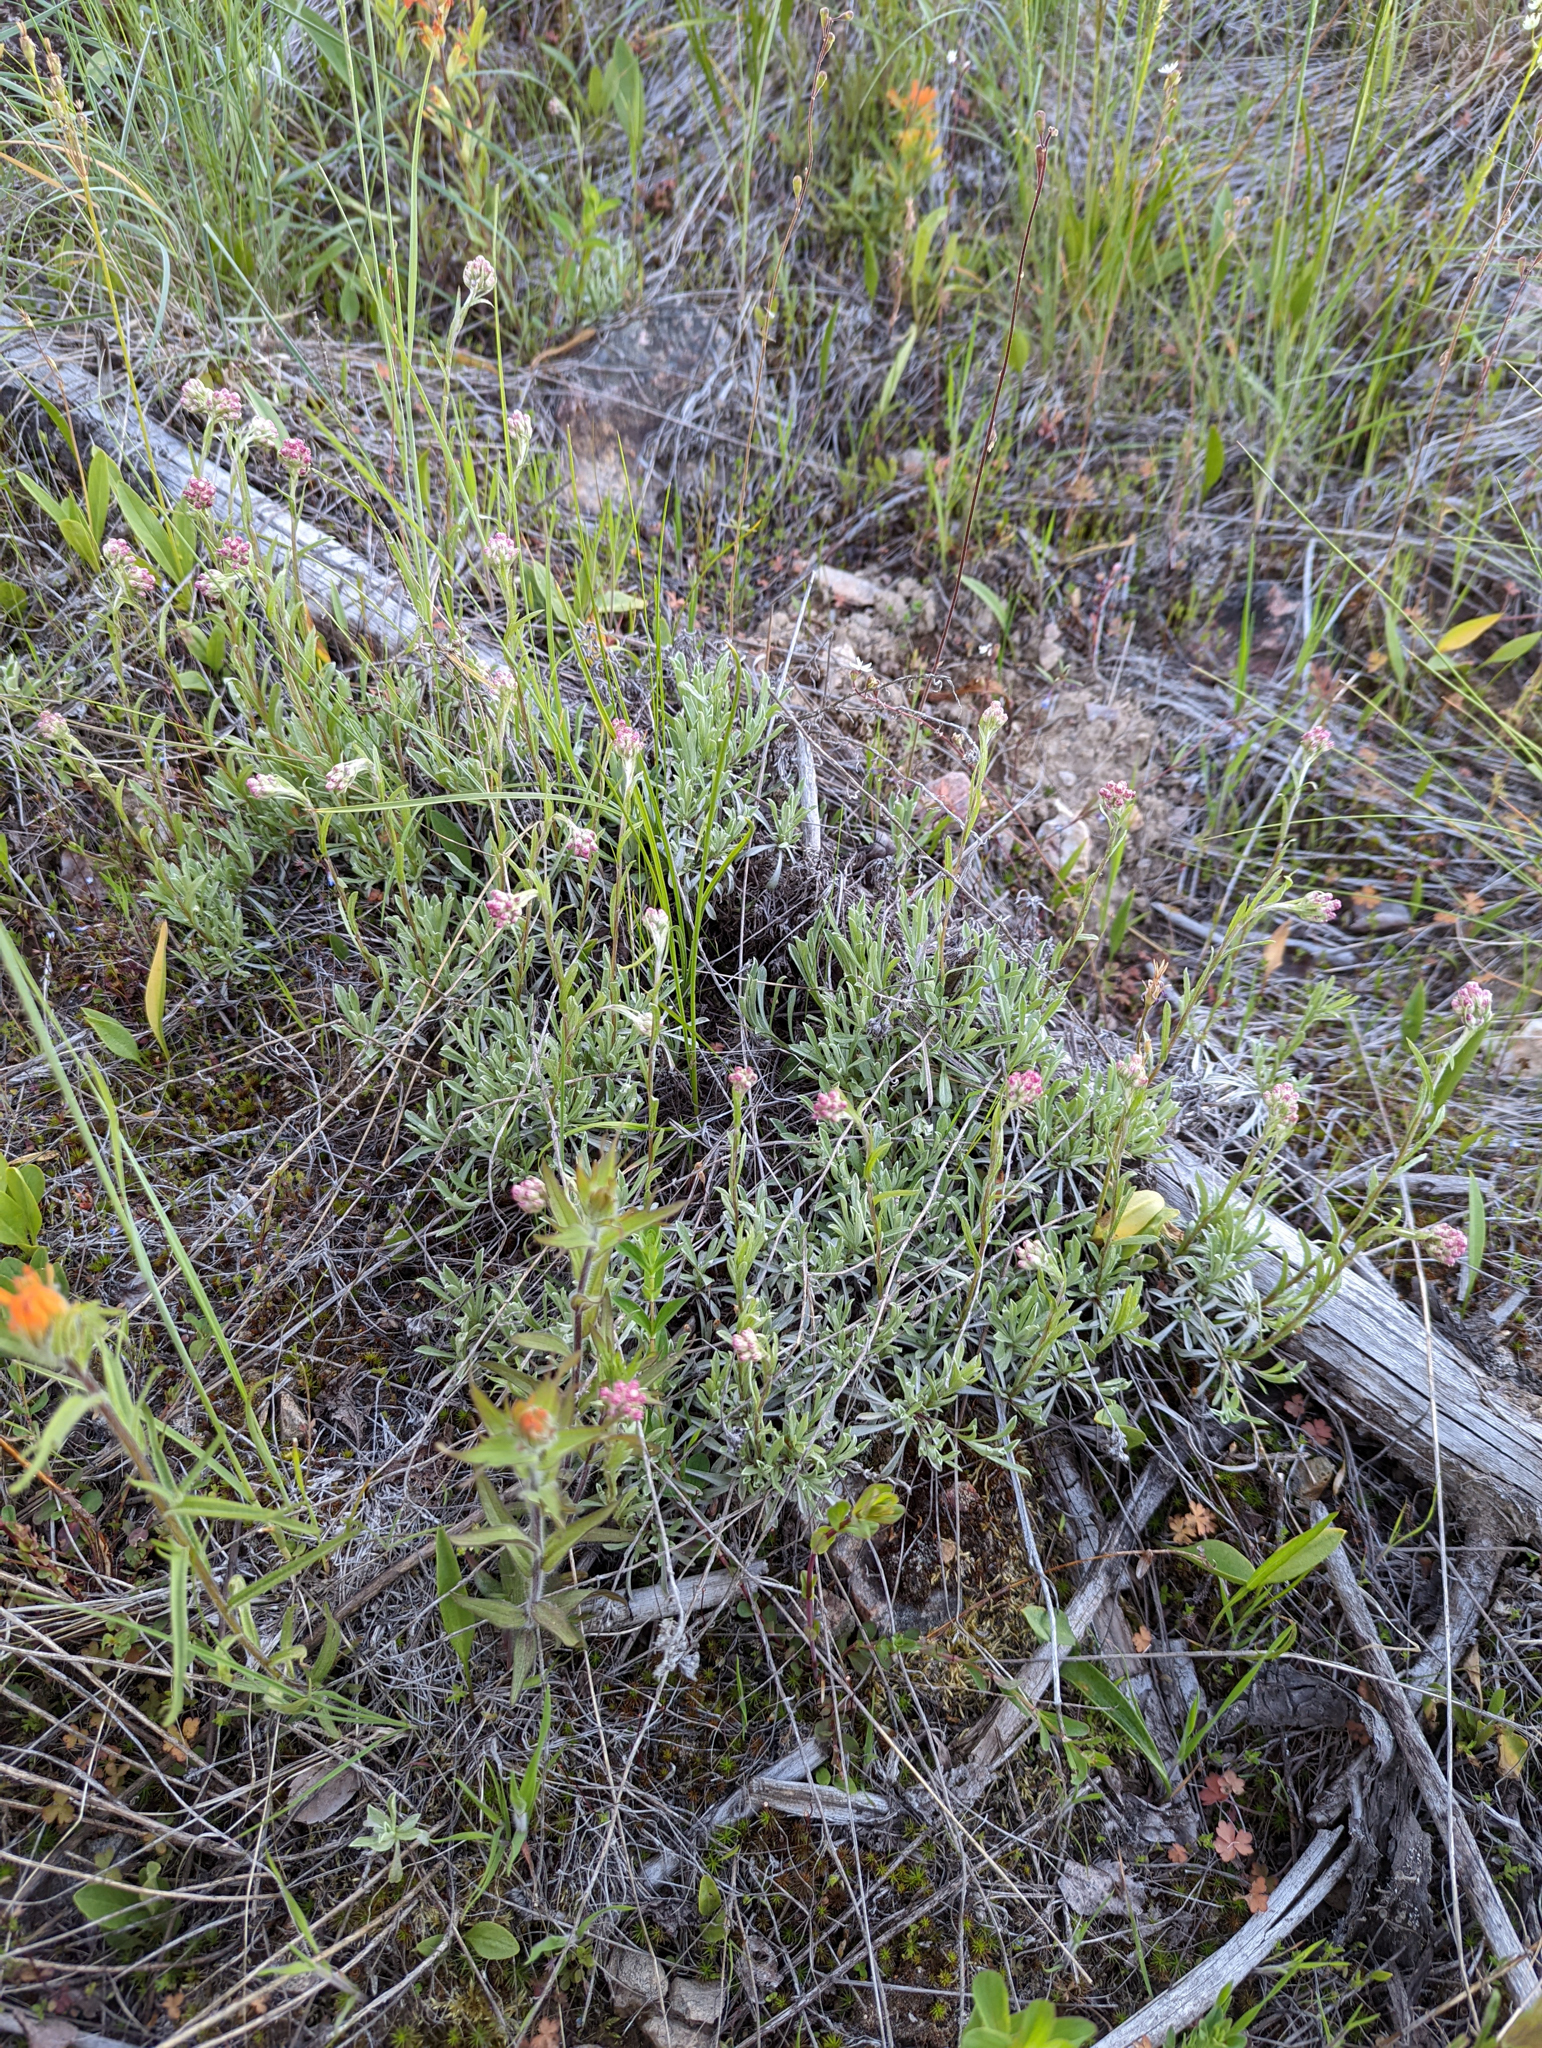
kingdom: Plantae
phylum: Tracheophyta
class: Magnoliopsida
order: Asterales
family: Asteraceae
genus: Antennaria
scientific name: Antennaria rosea
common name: Rosy pussytoes
